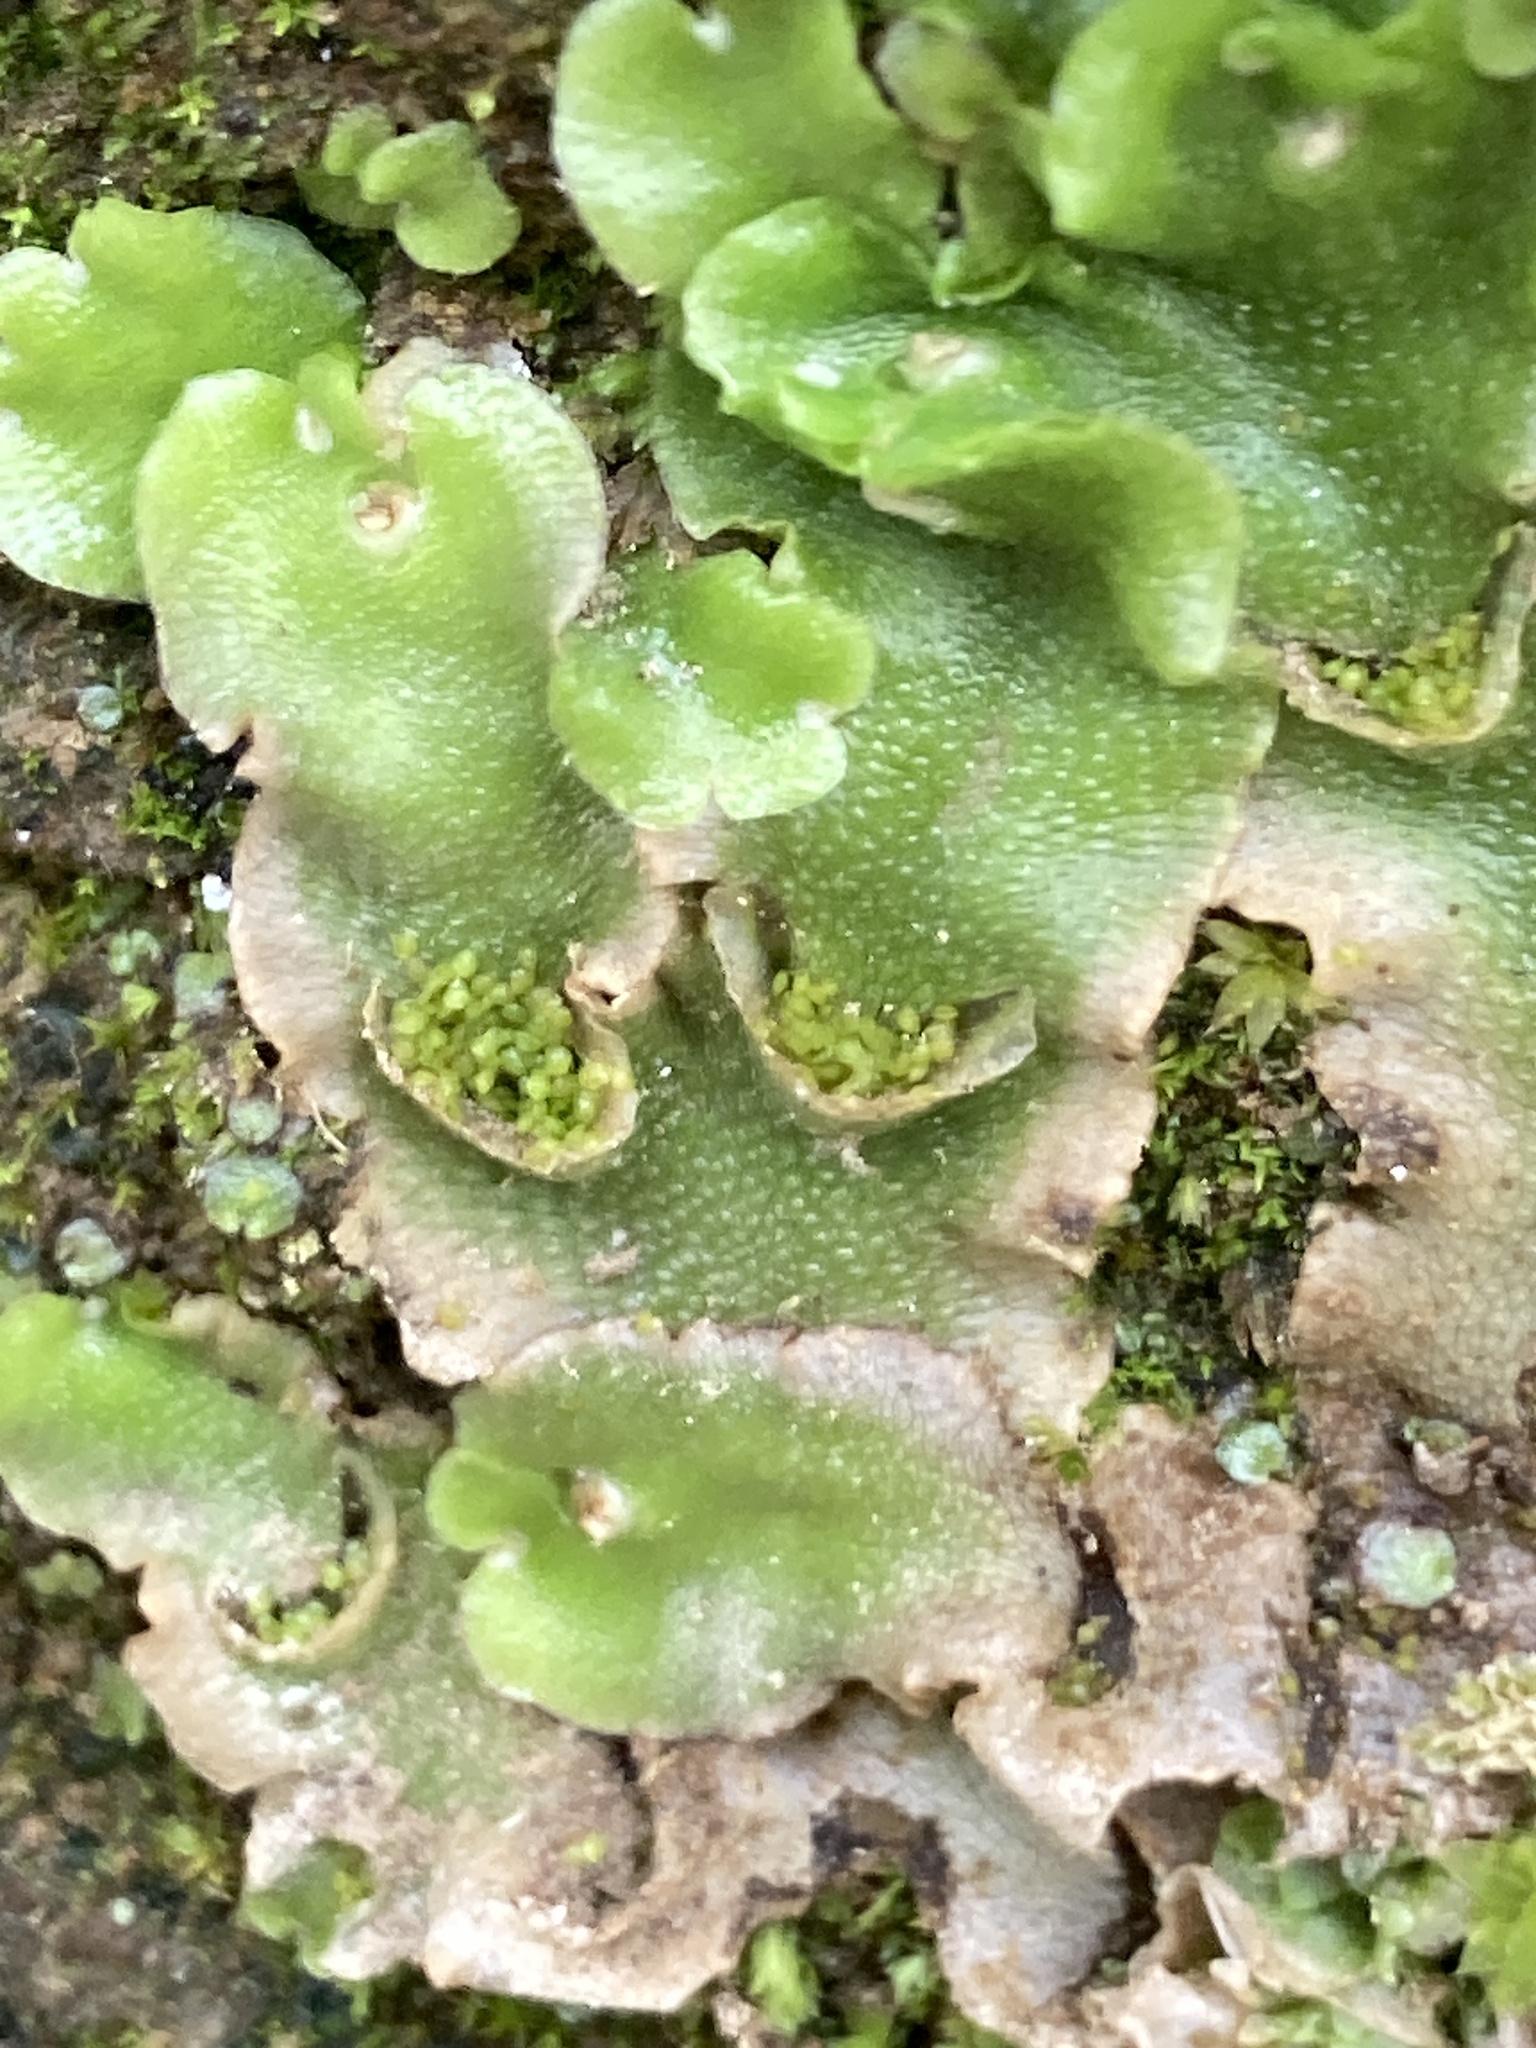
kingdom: Plantae
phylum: Marchantiophyta
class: Marchantiopsida
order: Lunulariales
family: Lunulariaceae
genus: Lunularia
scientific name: Lunularia cruciata
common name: Crescent-cup liverwort
